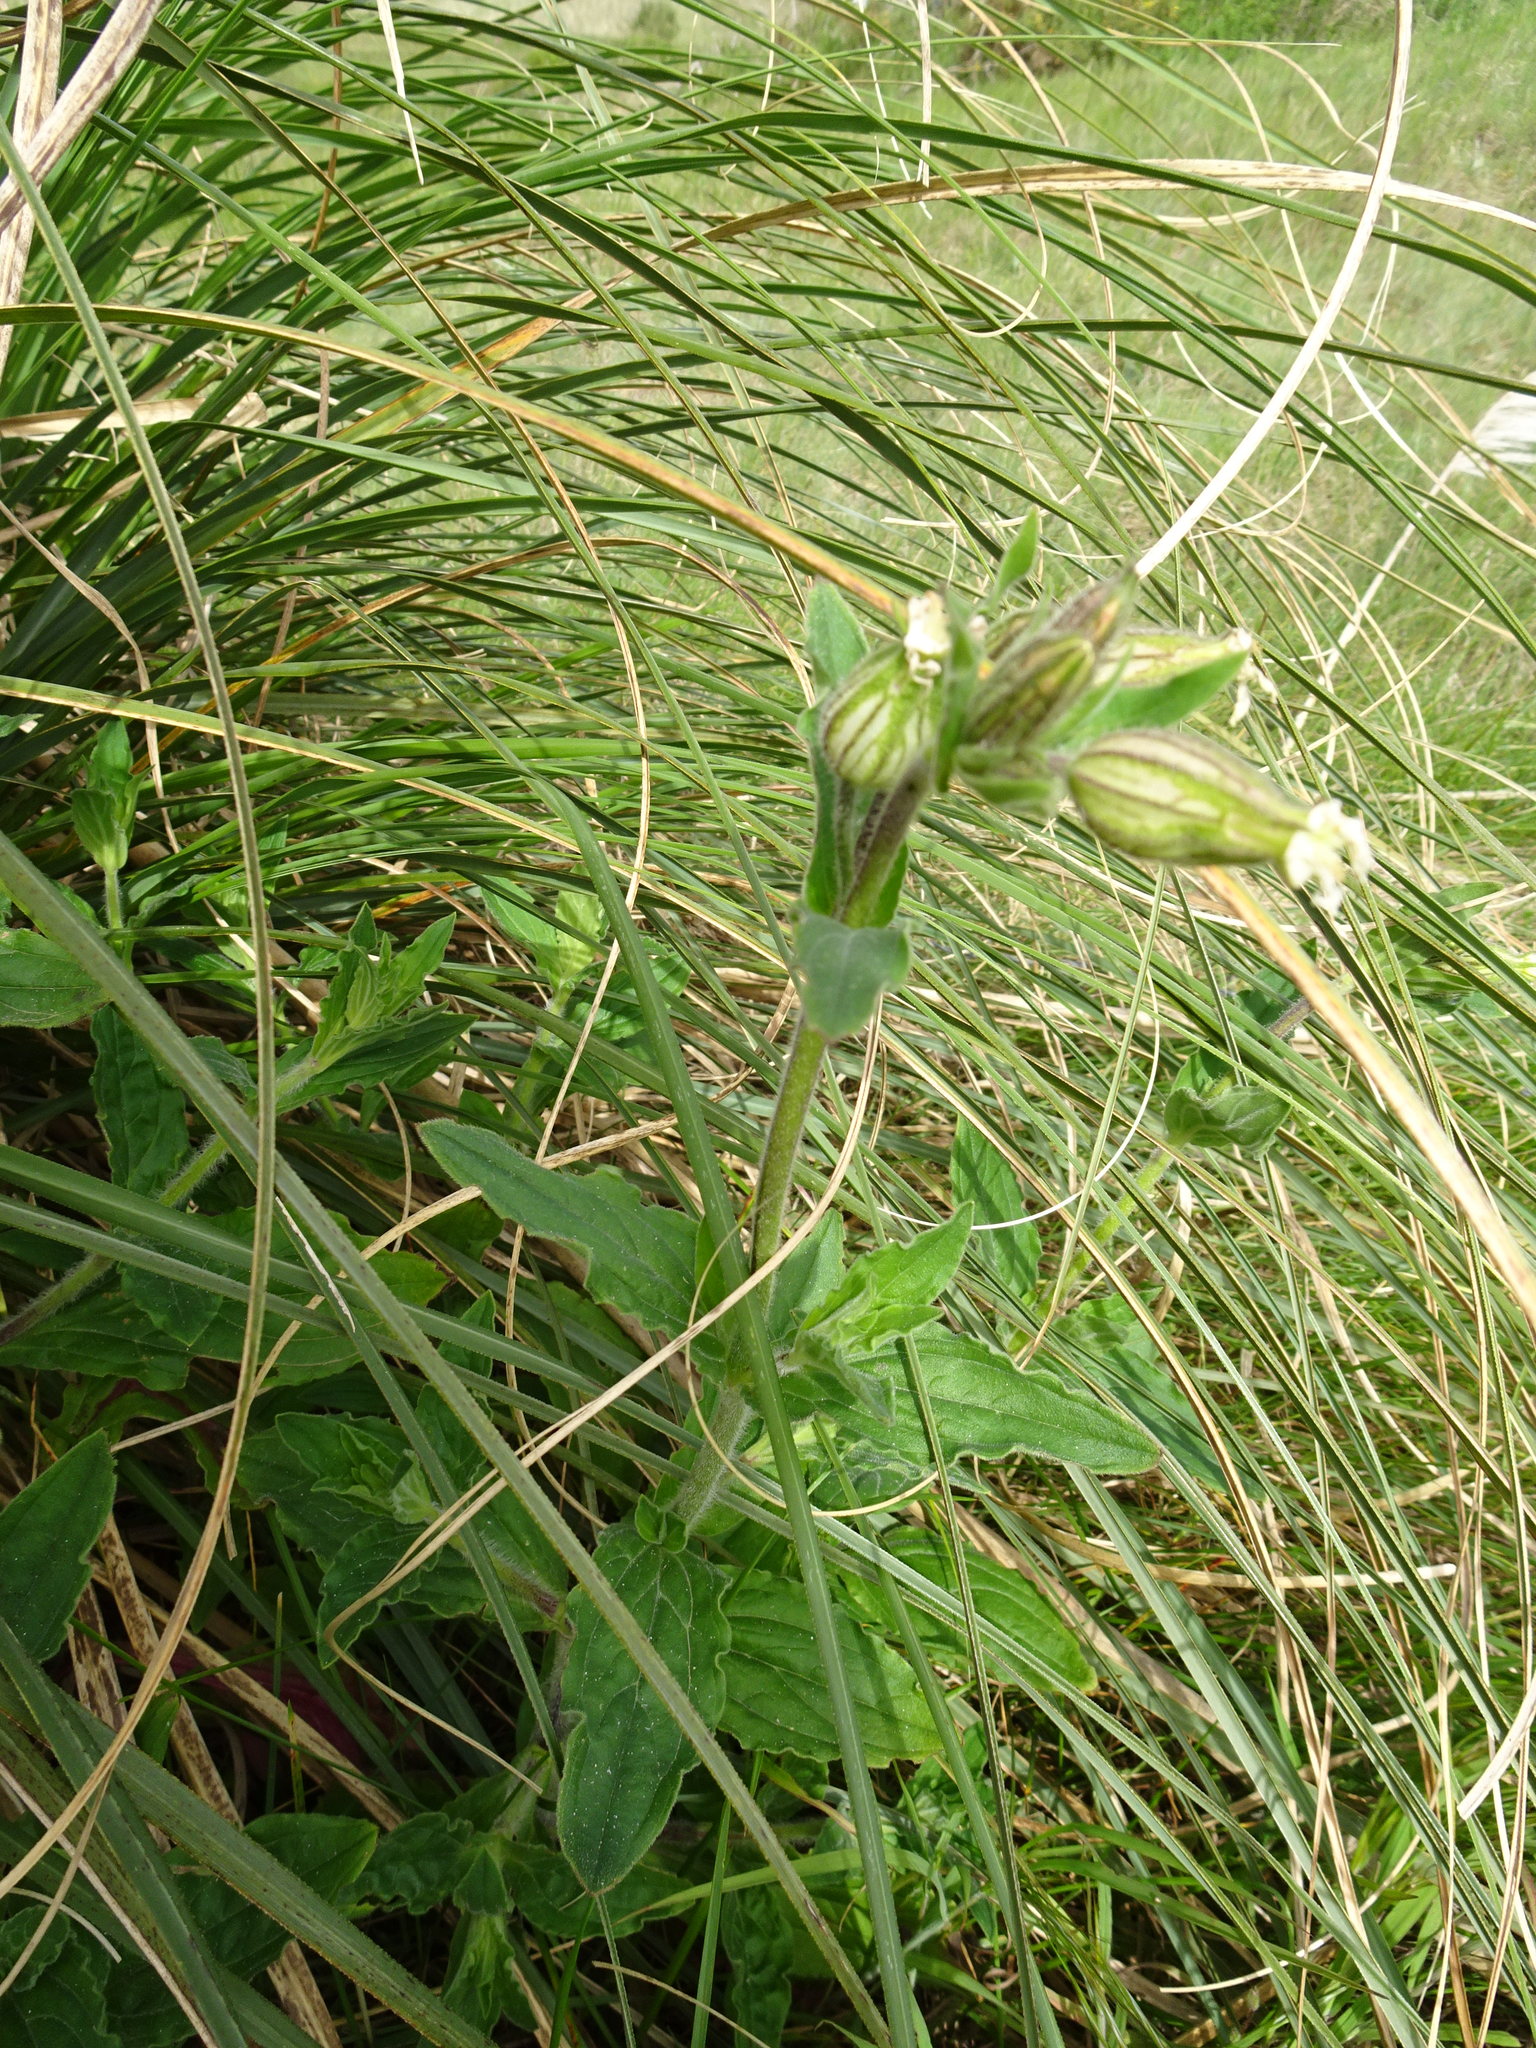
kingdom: Plantae
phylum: Tracheophyta
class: Magnoliopsida
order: Caryophyllales
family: Caryophyllaceae
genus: Silene
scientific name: Silene latifolia
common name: White campion
